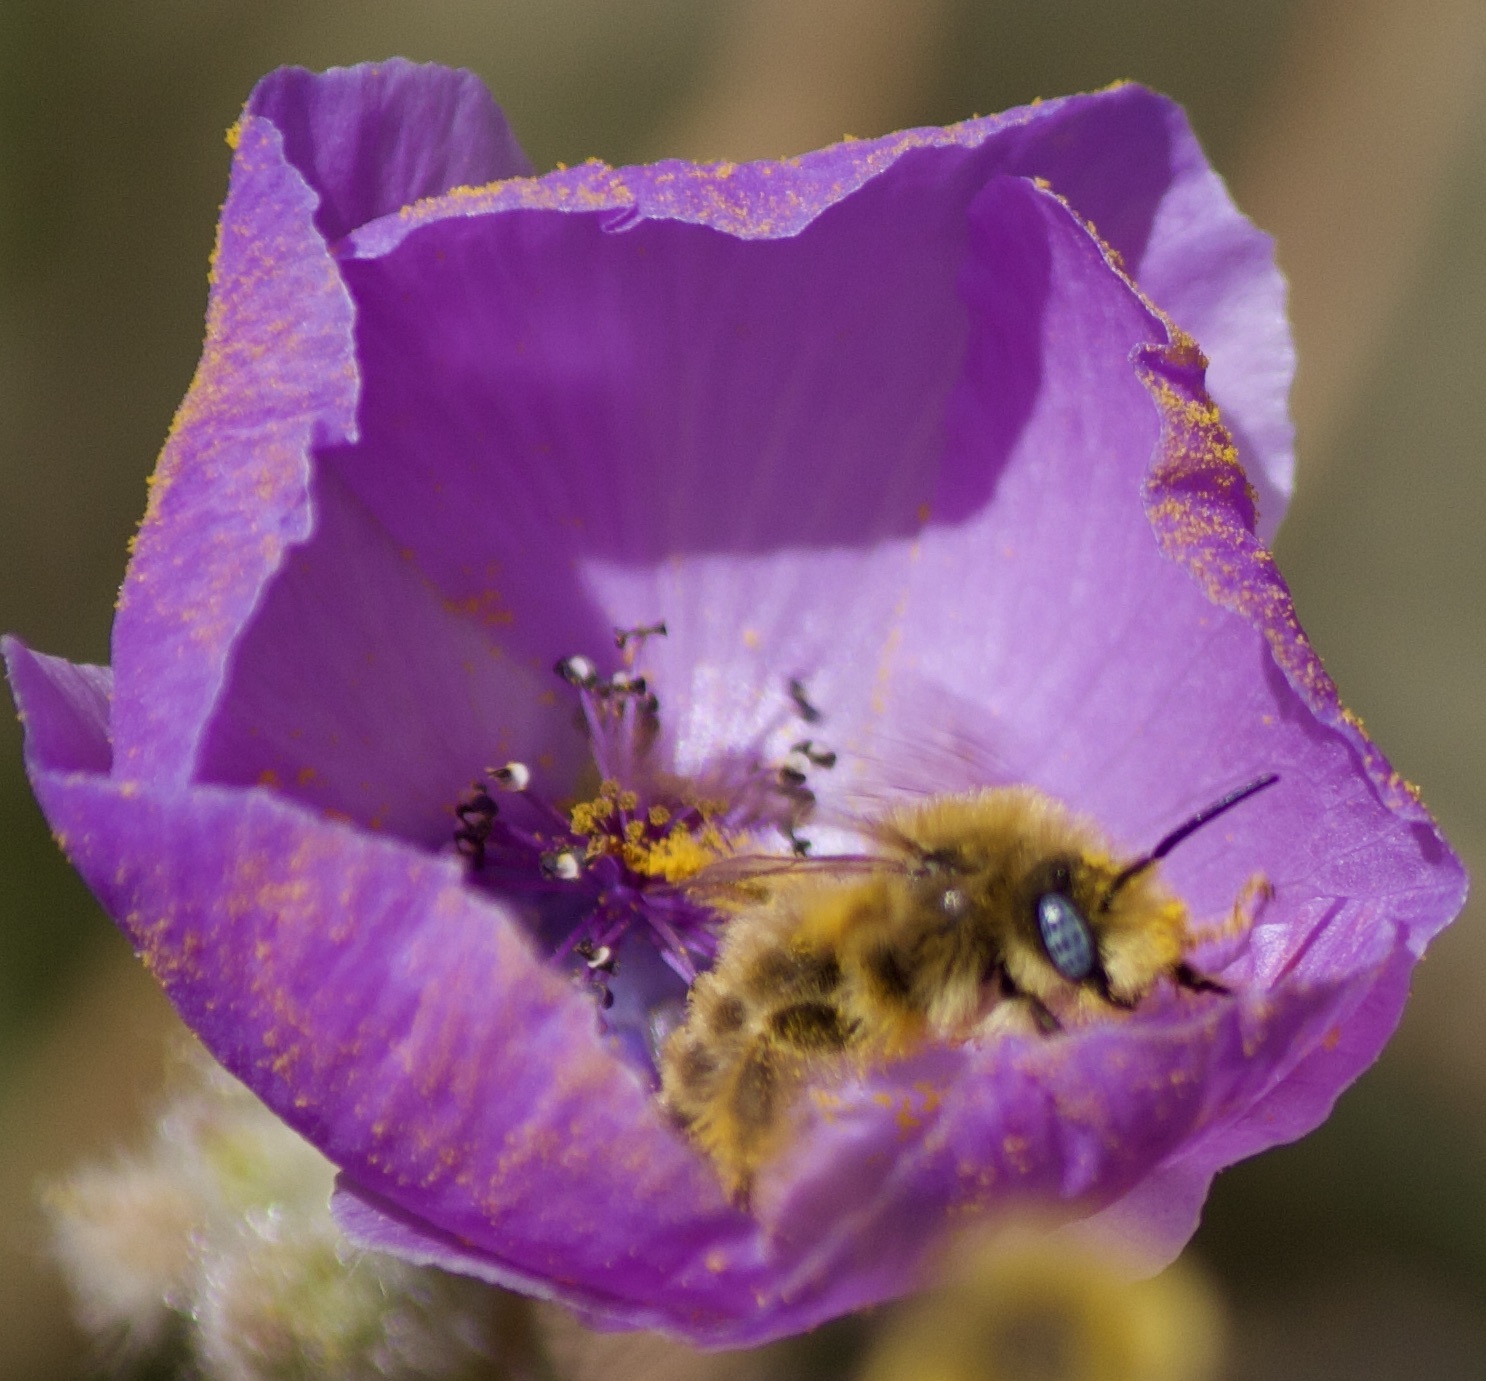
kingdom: Animalia
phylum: Arthropoda
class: Insecta
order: Hymenoptera
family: Apidae
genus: Diadasia
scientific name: Diadasia chilensis
